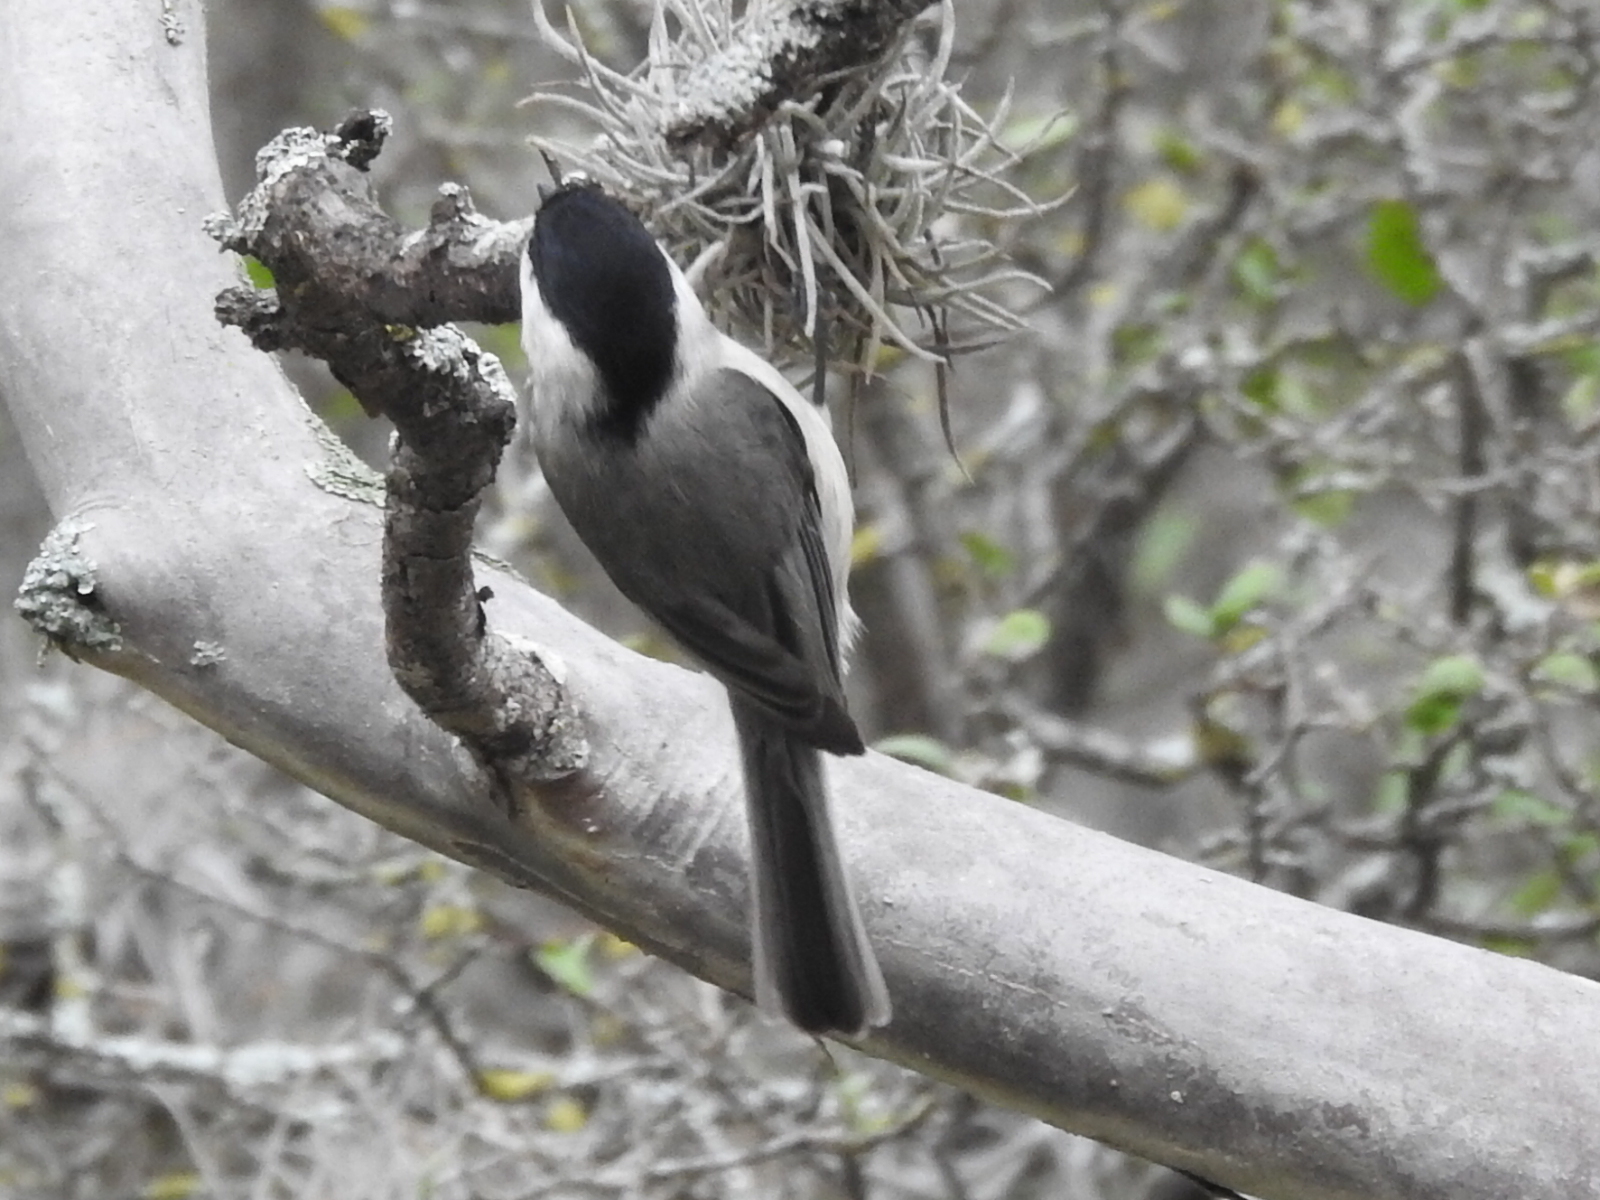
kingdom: Animalia
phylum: Chordata
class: Aves
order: Passeriformes
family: Paridae
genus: Poecile
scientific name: Poecile carolinensis
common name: Carolina chickadee
